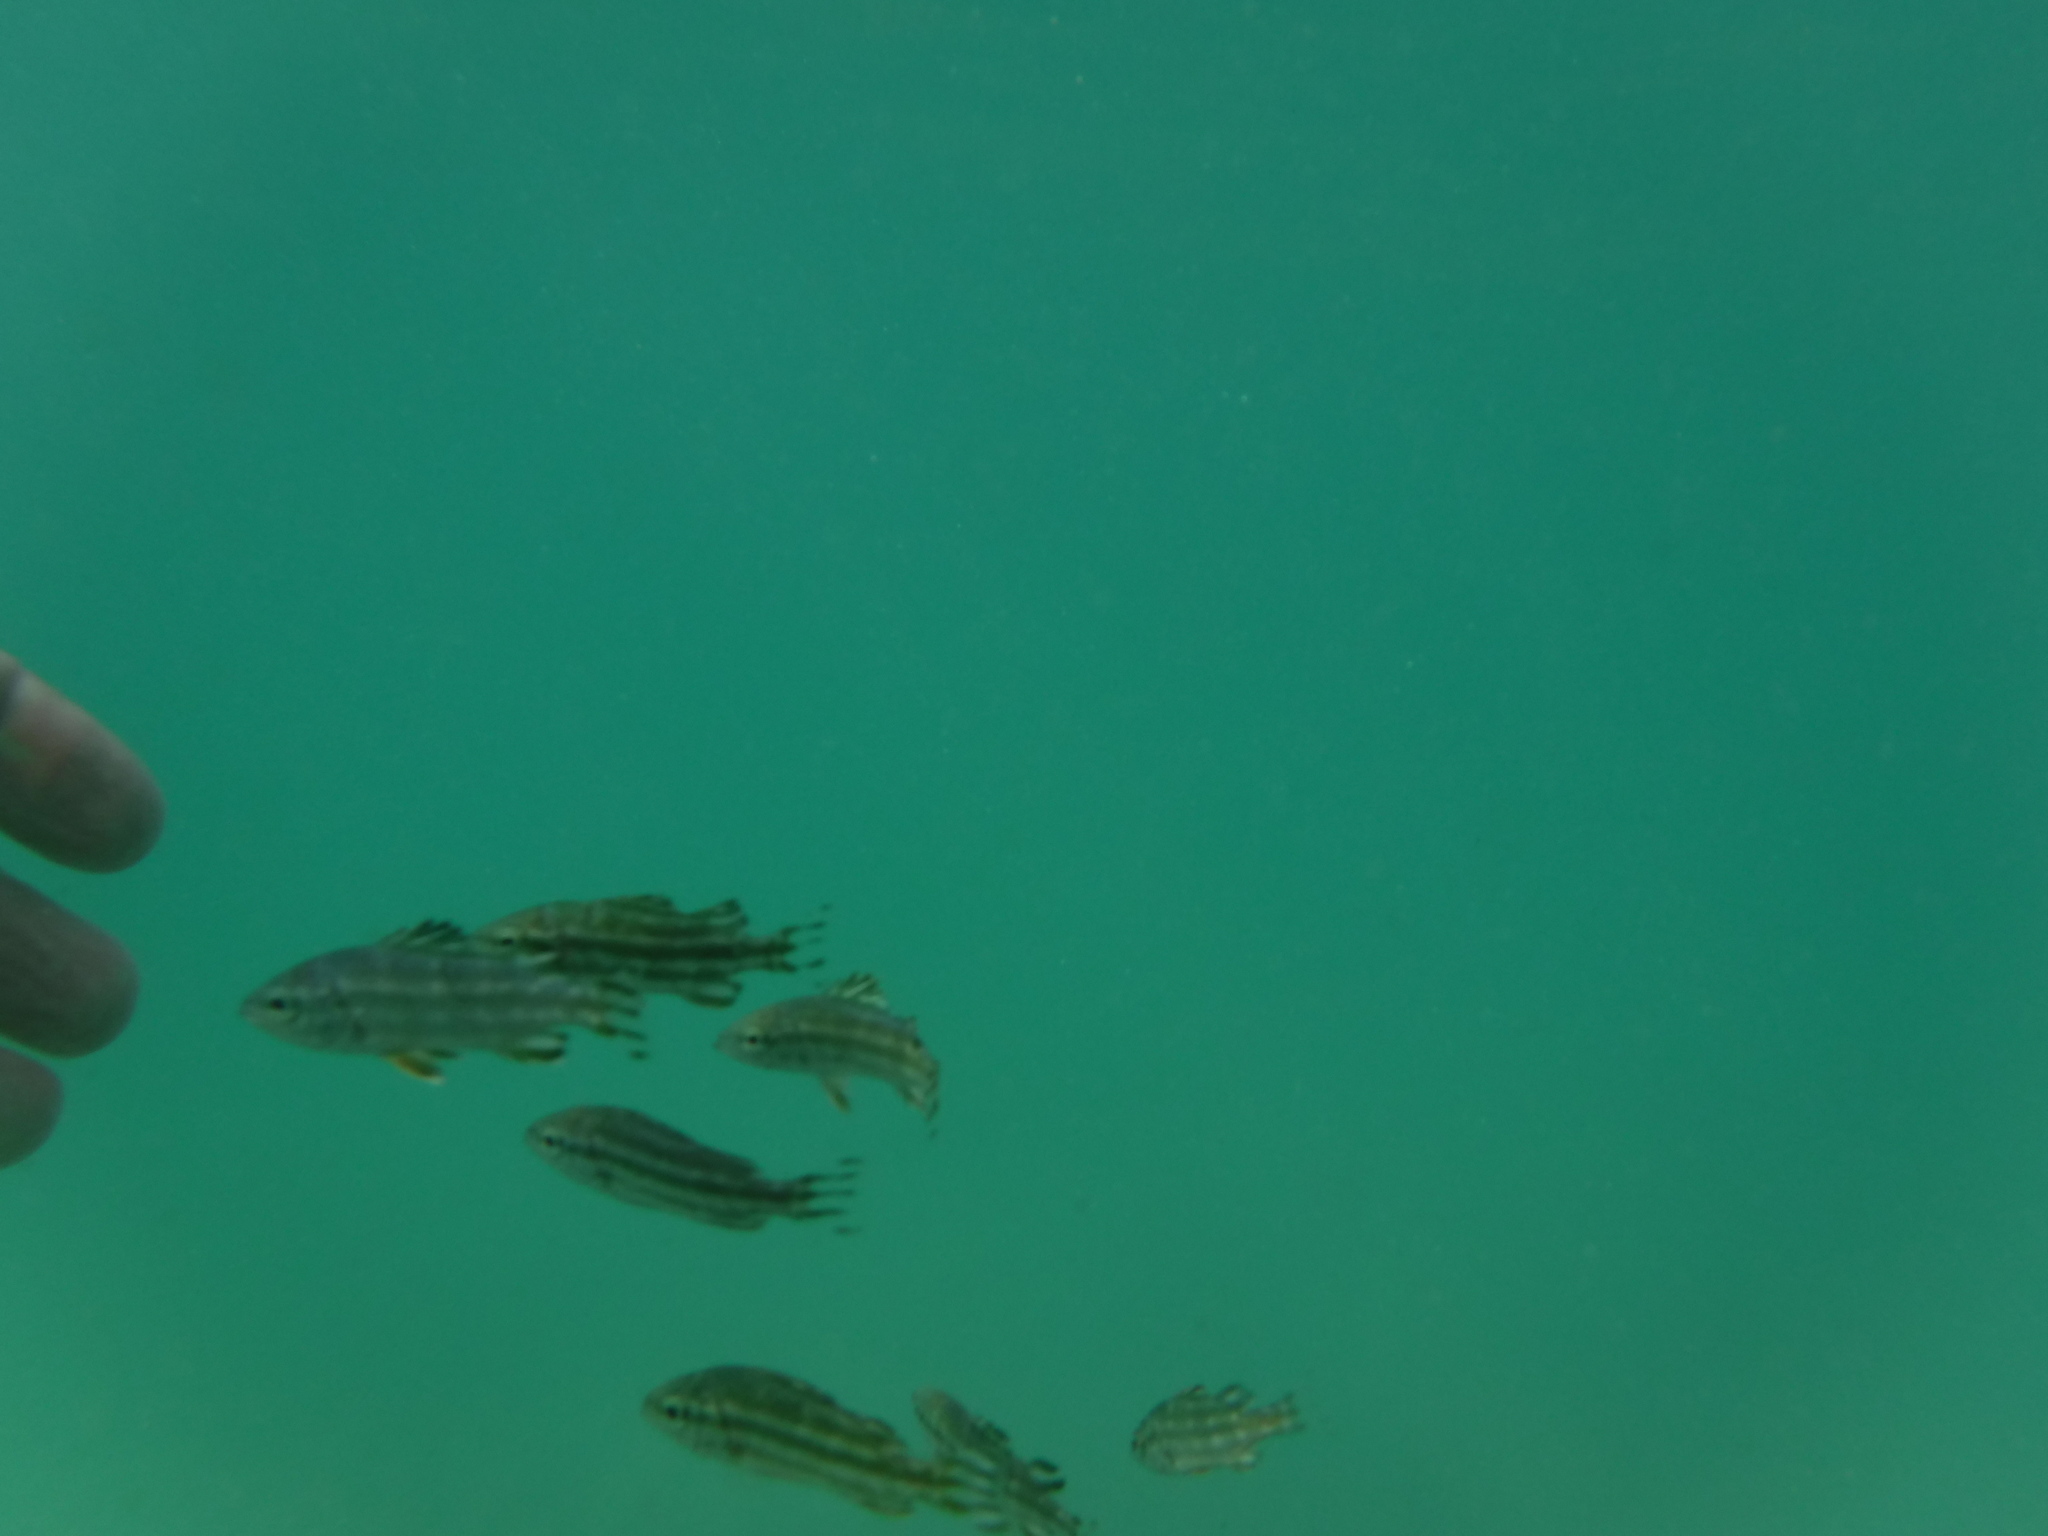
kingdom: Animalia
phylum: Chordata
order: Perciformes
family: Terapontidae
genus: Terapon
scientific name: Terapon theraps
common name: Largescaled therapon
